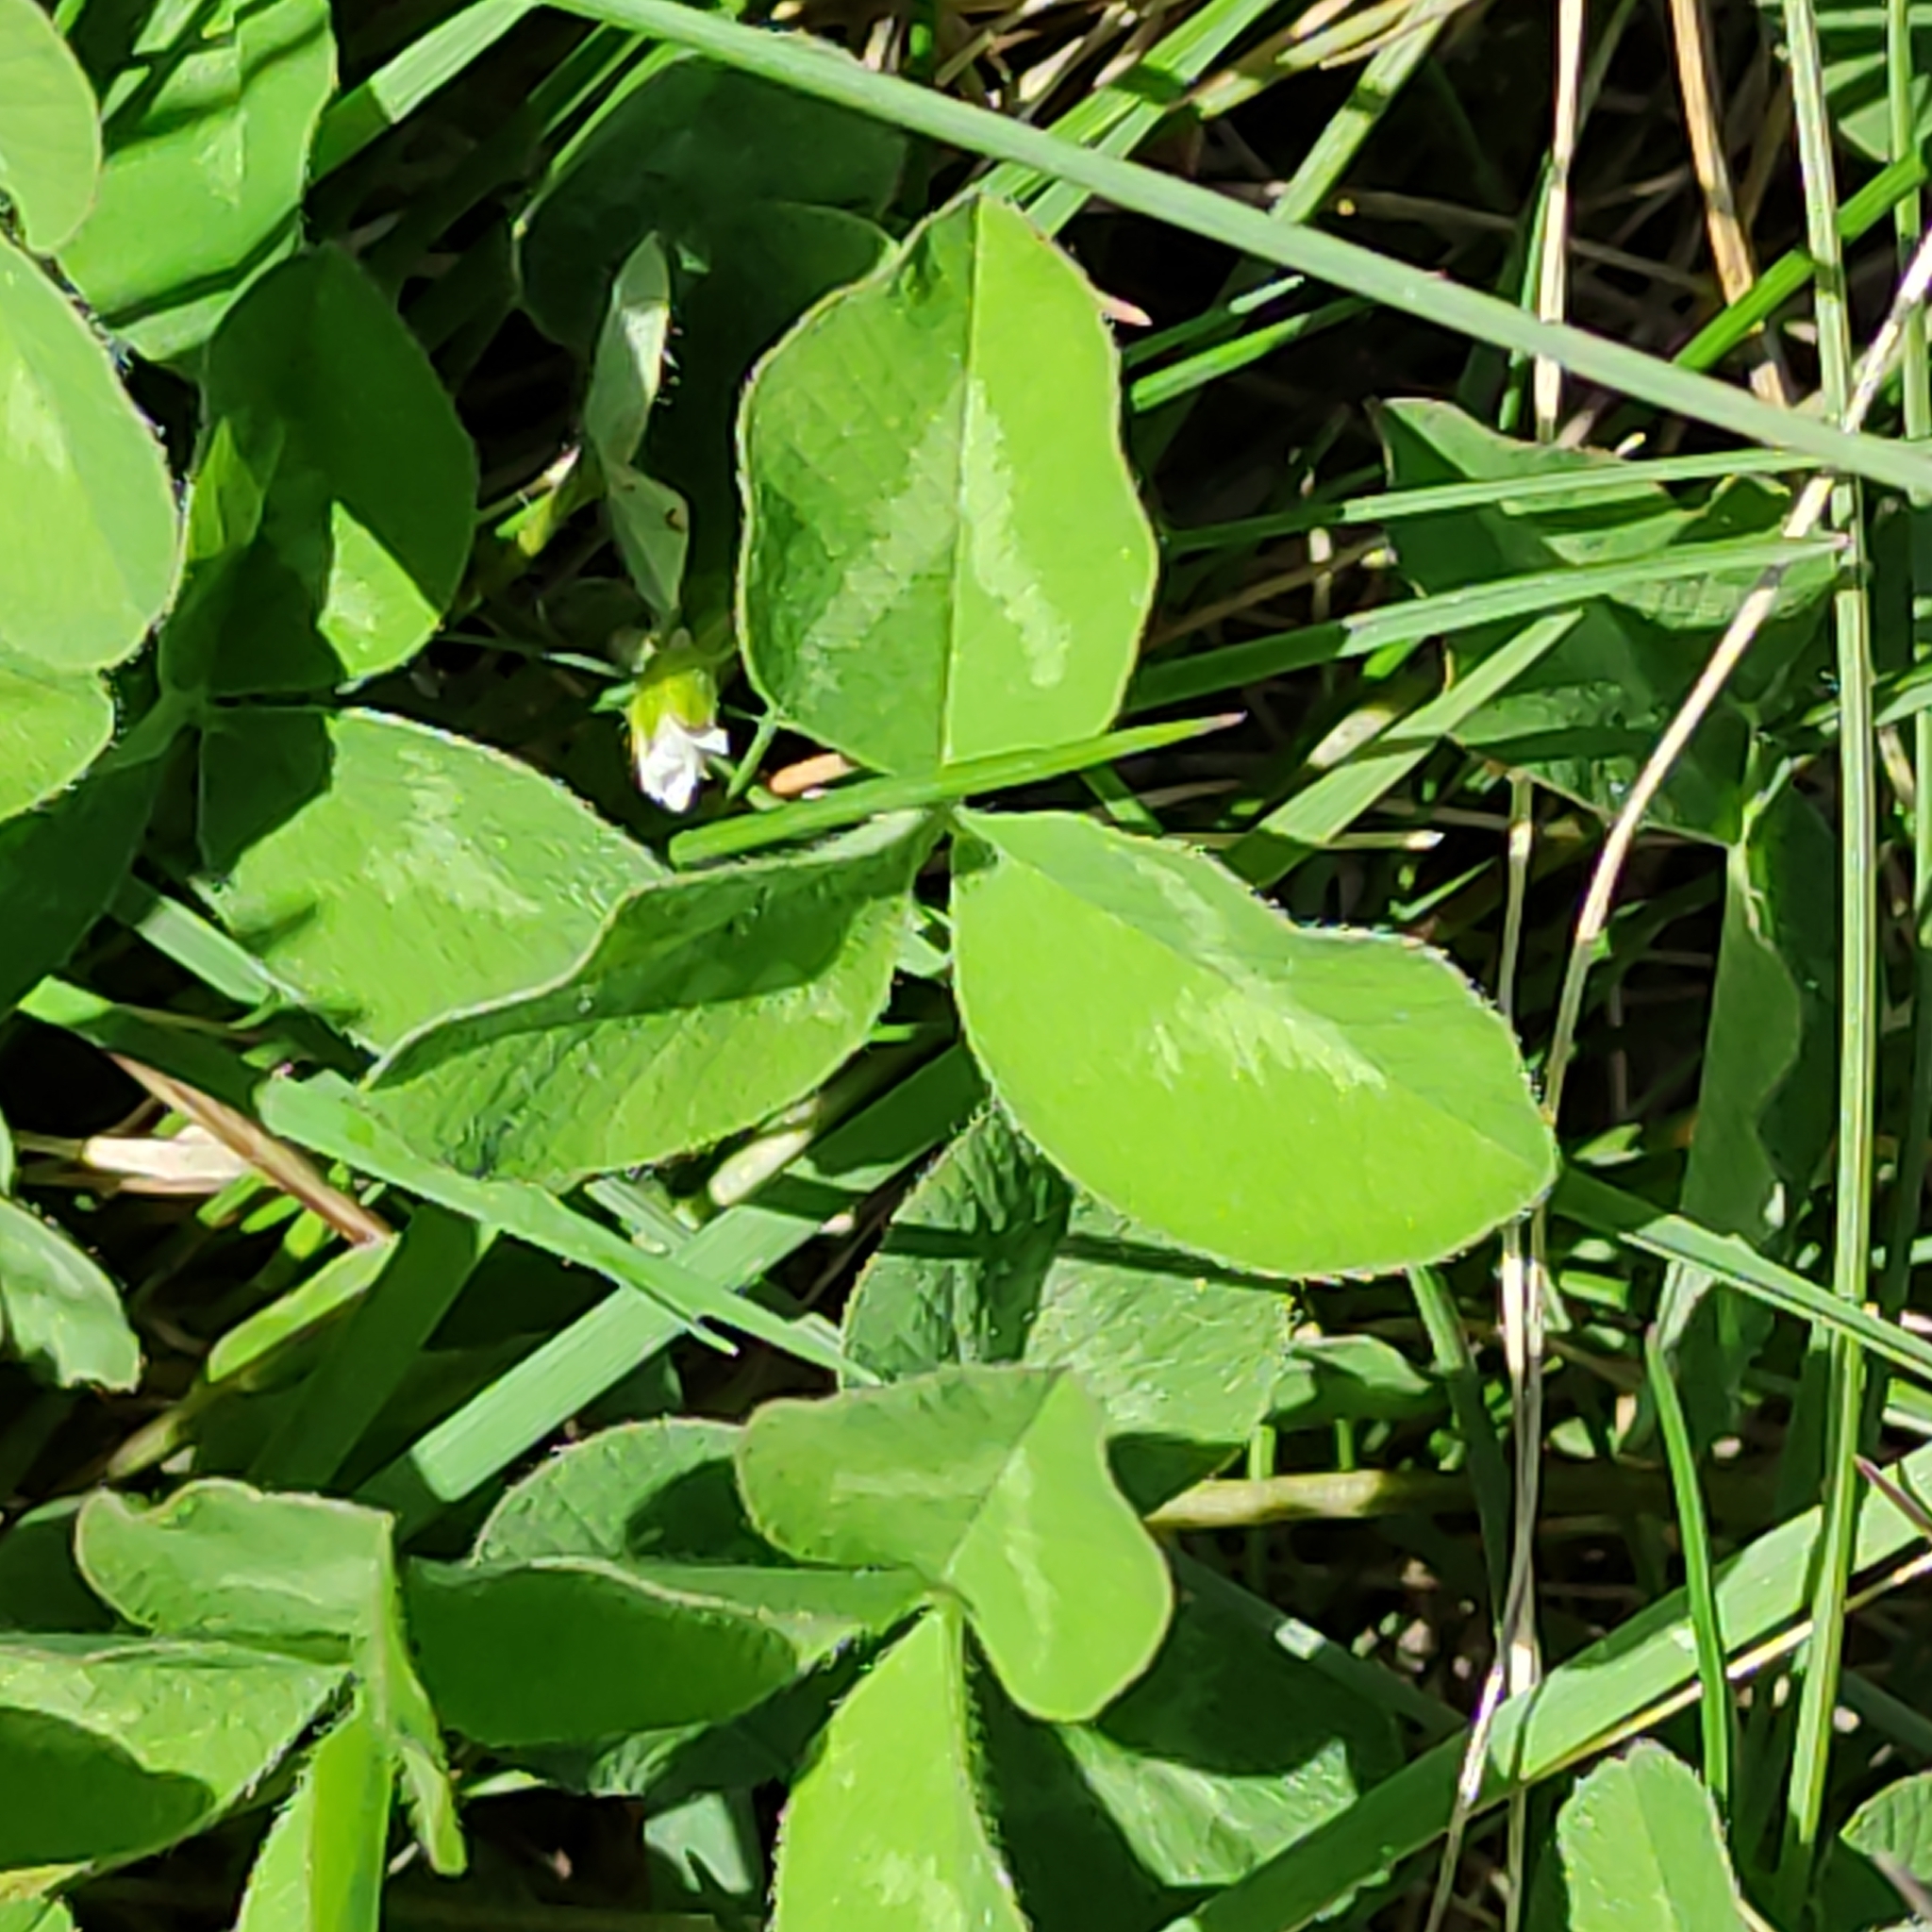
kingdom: Plantae
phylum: Tracheophyta
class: Magnoliopsida
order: Fabales
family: Fabaceae
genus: Melilotus
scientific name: Melilotus albus
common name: White melilot
